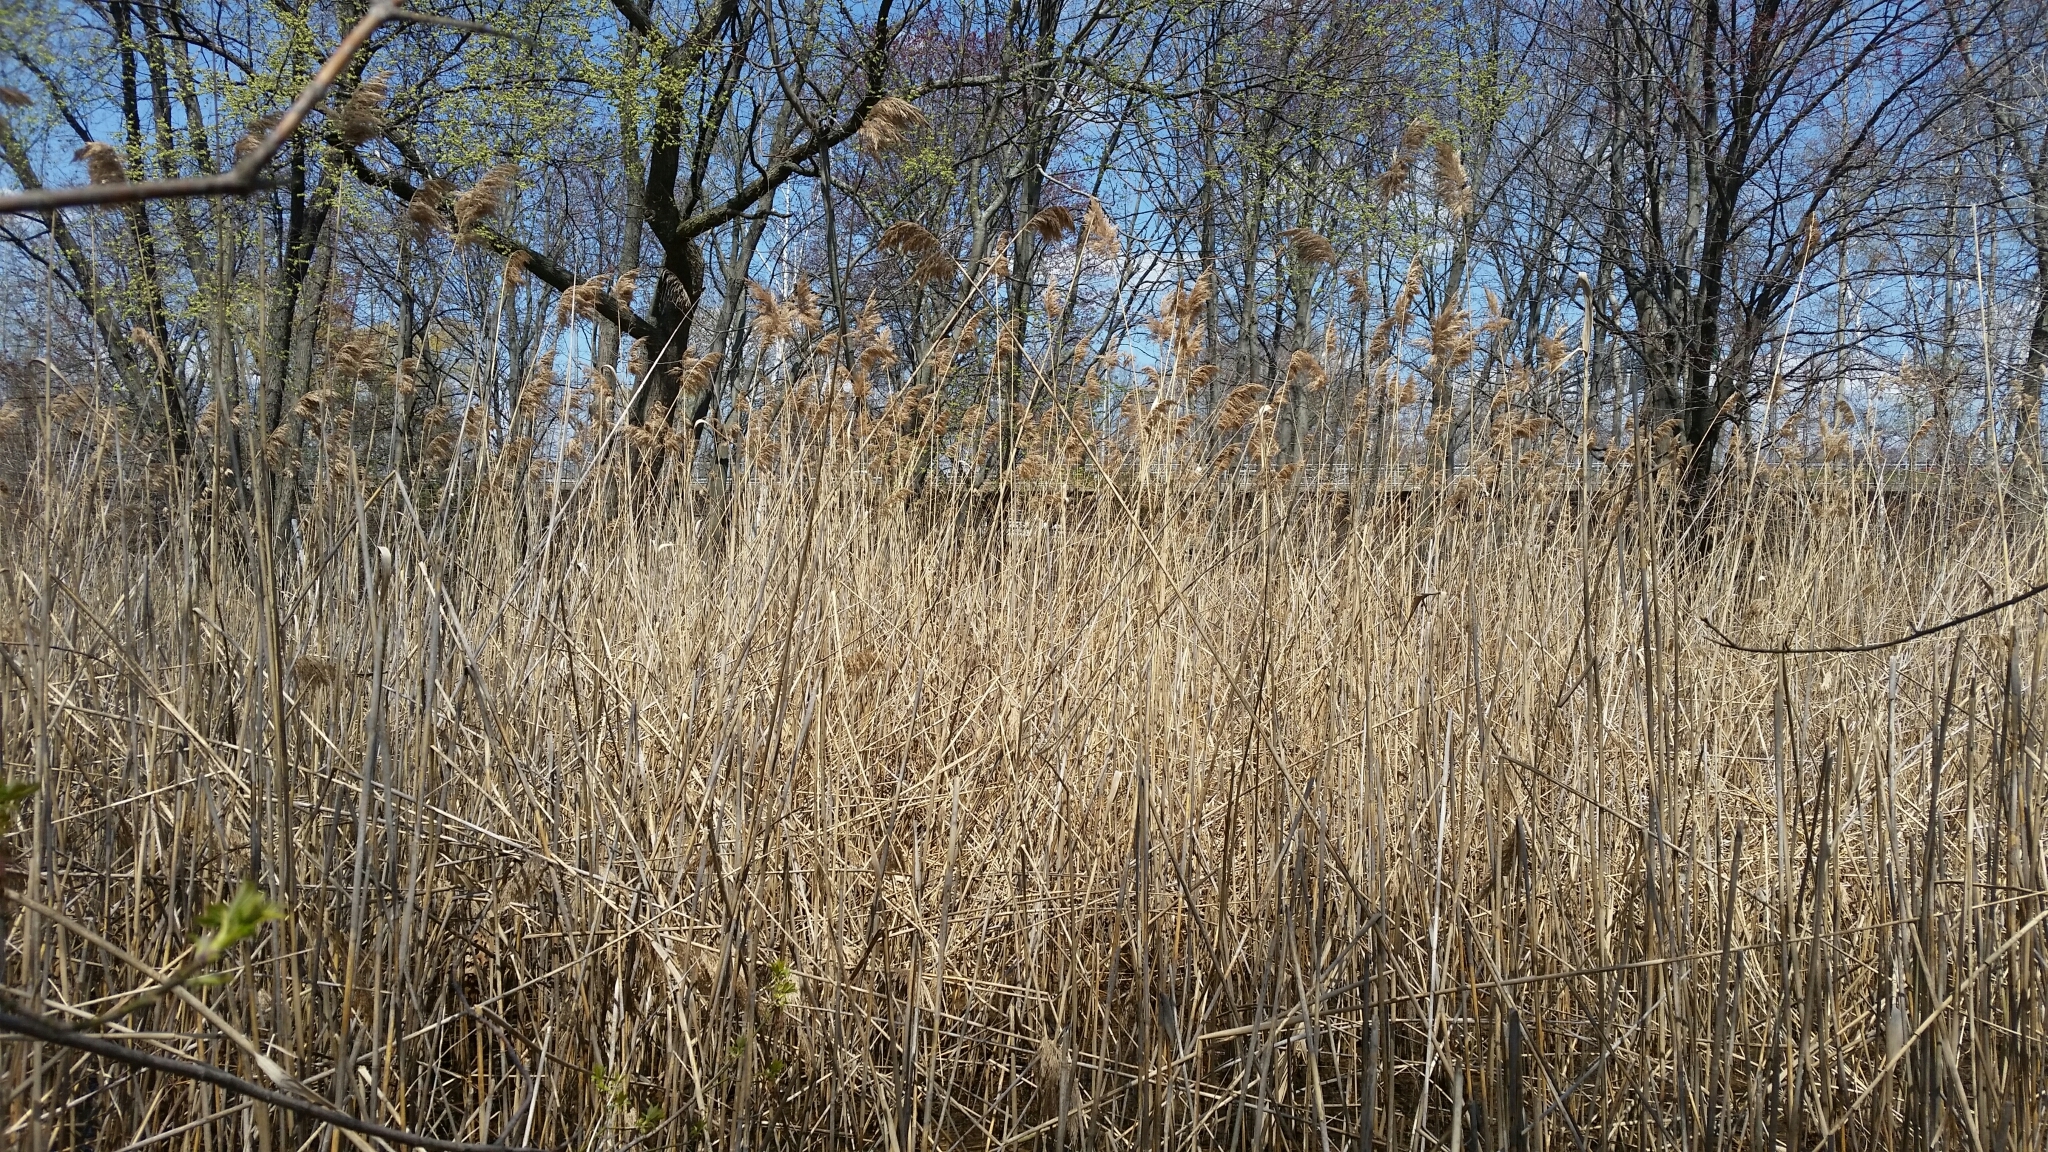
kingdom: Plantae
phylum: Tracheophyta
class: Liliopsida
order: Poales
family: Poaceae
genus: Phragmites
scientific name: Phragmites australis
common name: Common reed
